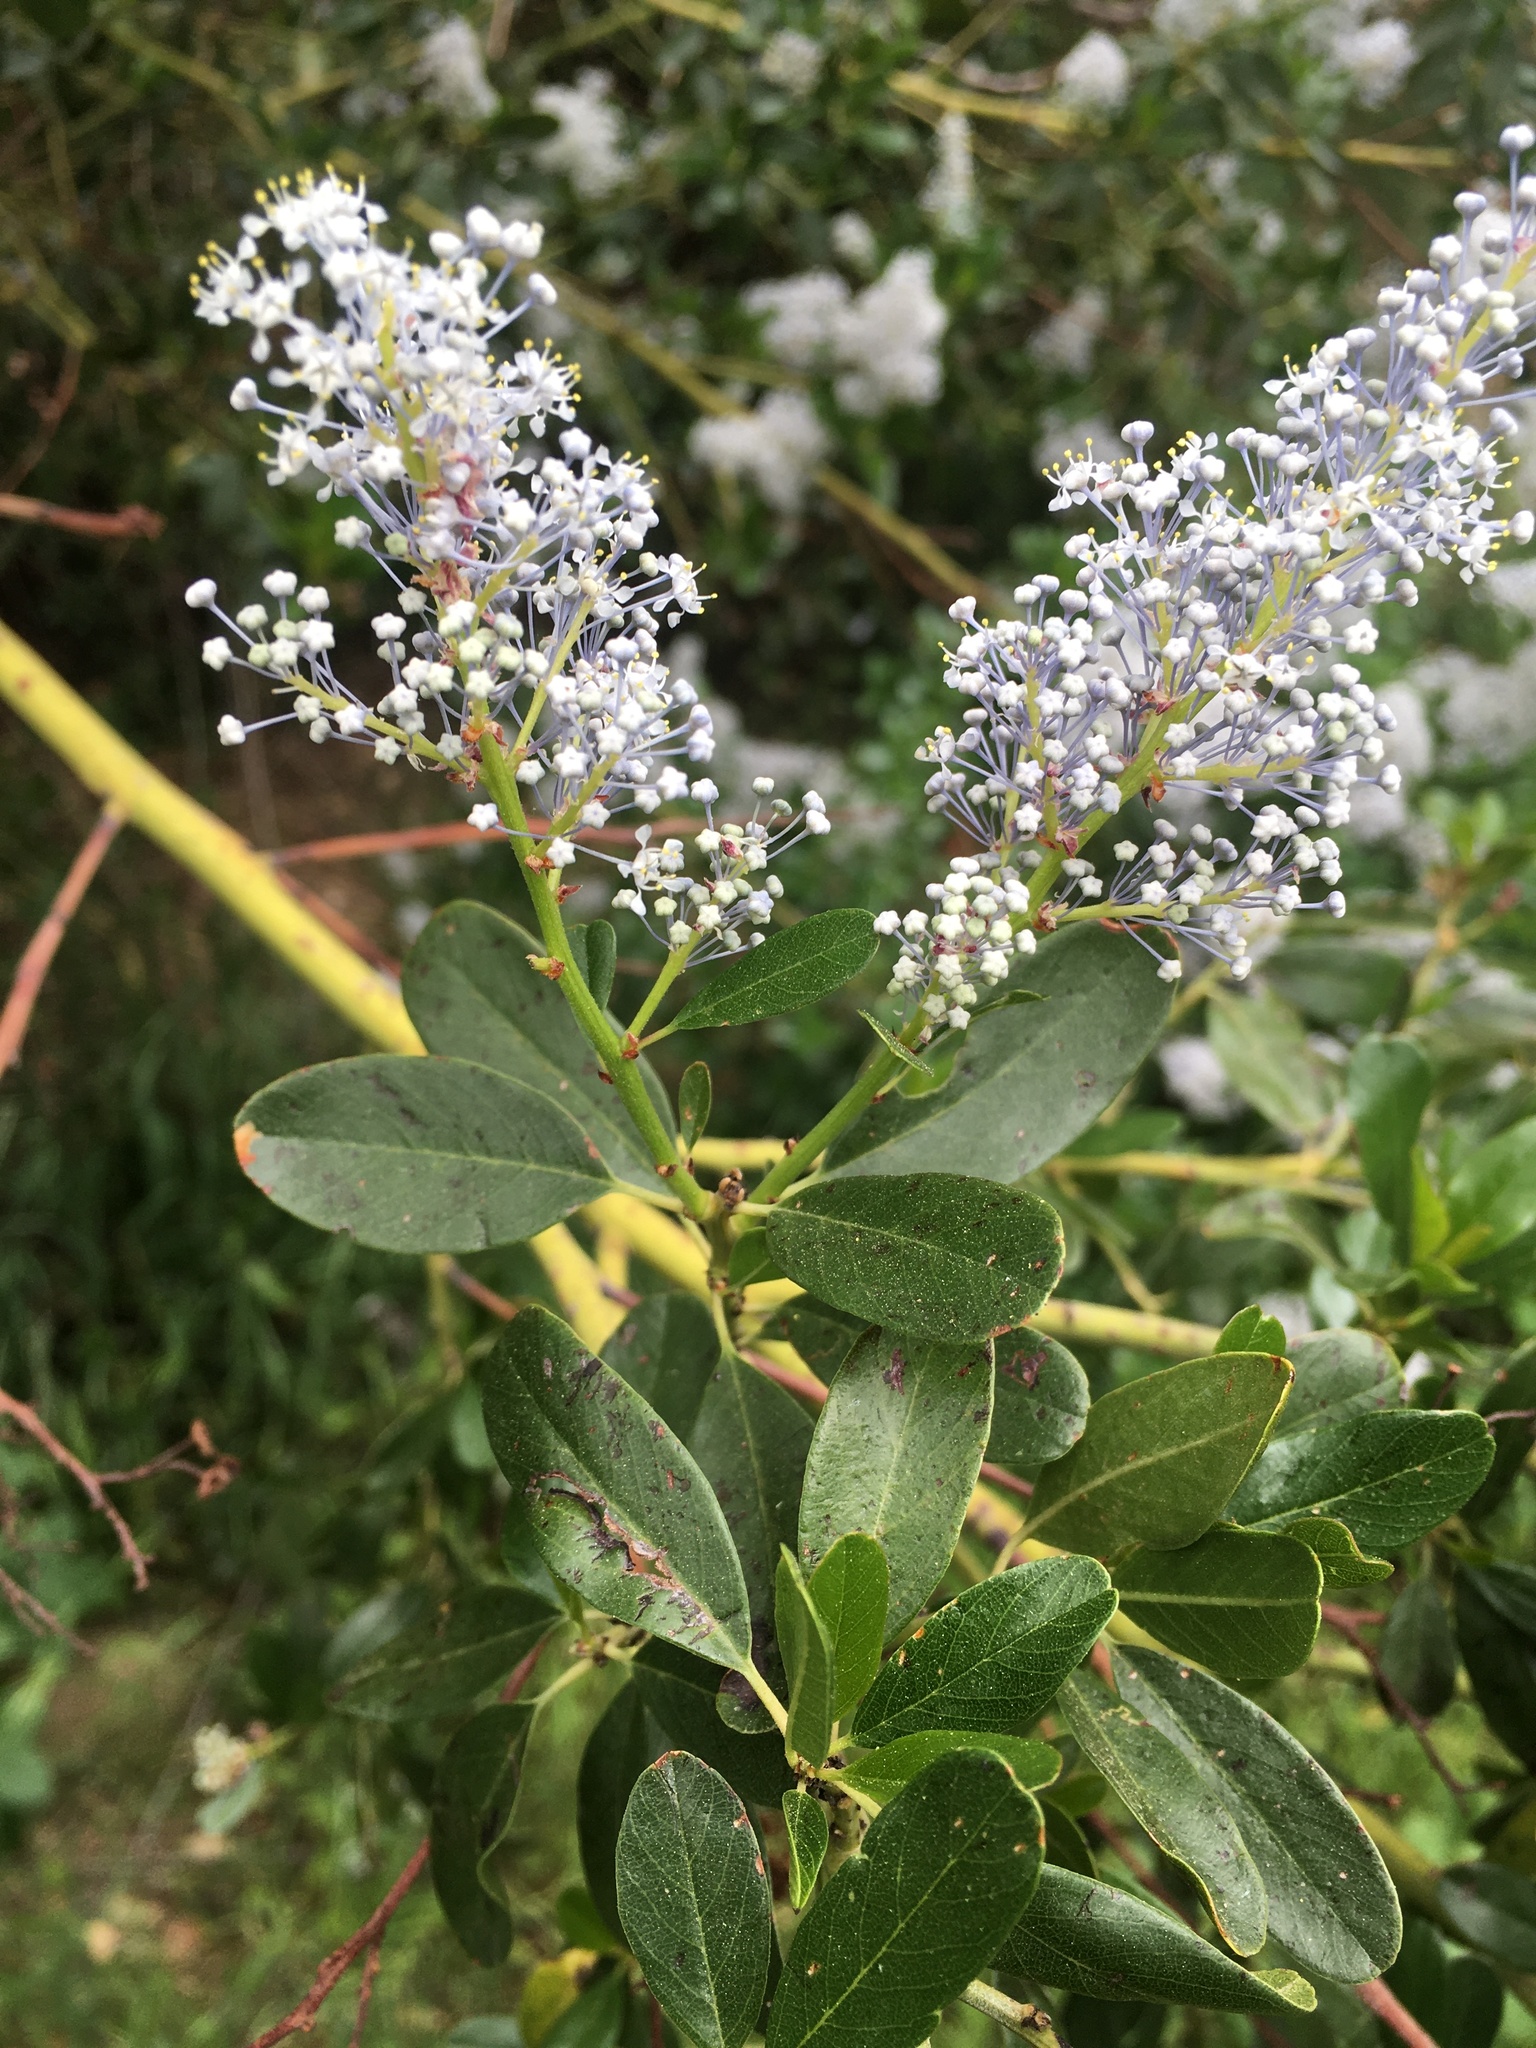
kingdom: Plantae
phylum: Tracheophyta
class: Magnoliopsida
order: Rosales
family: Rhamnaceae
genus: Ceanothus
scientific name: Ceanothus spinosus
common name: Greenbark whitethorn
